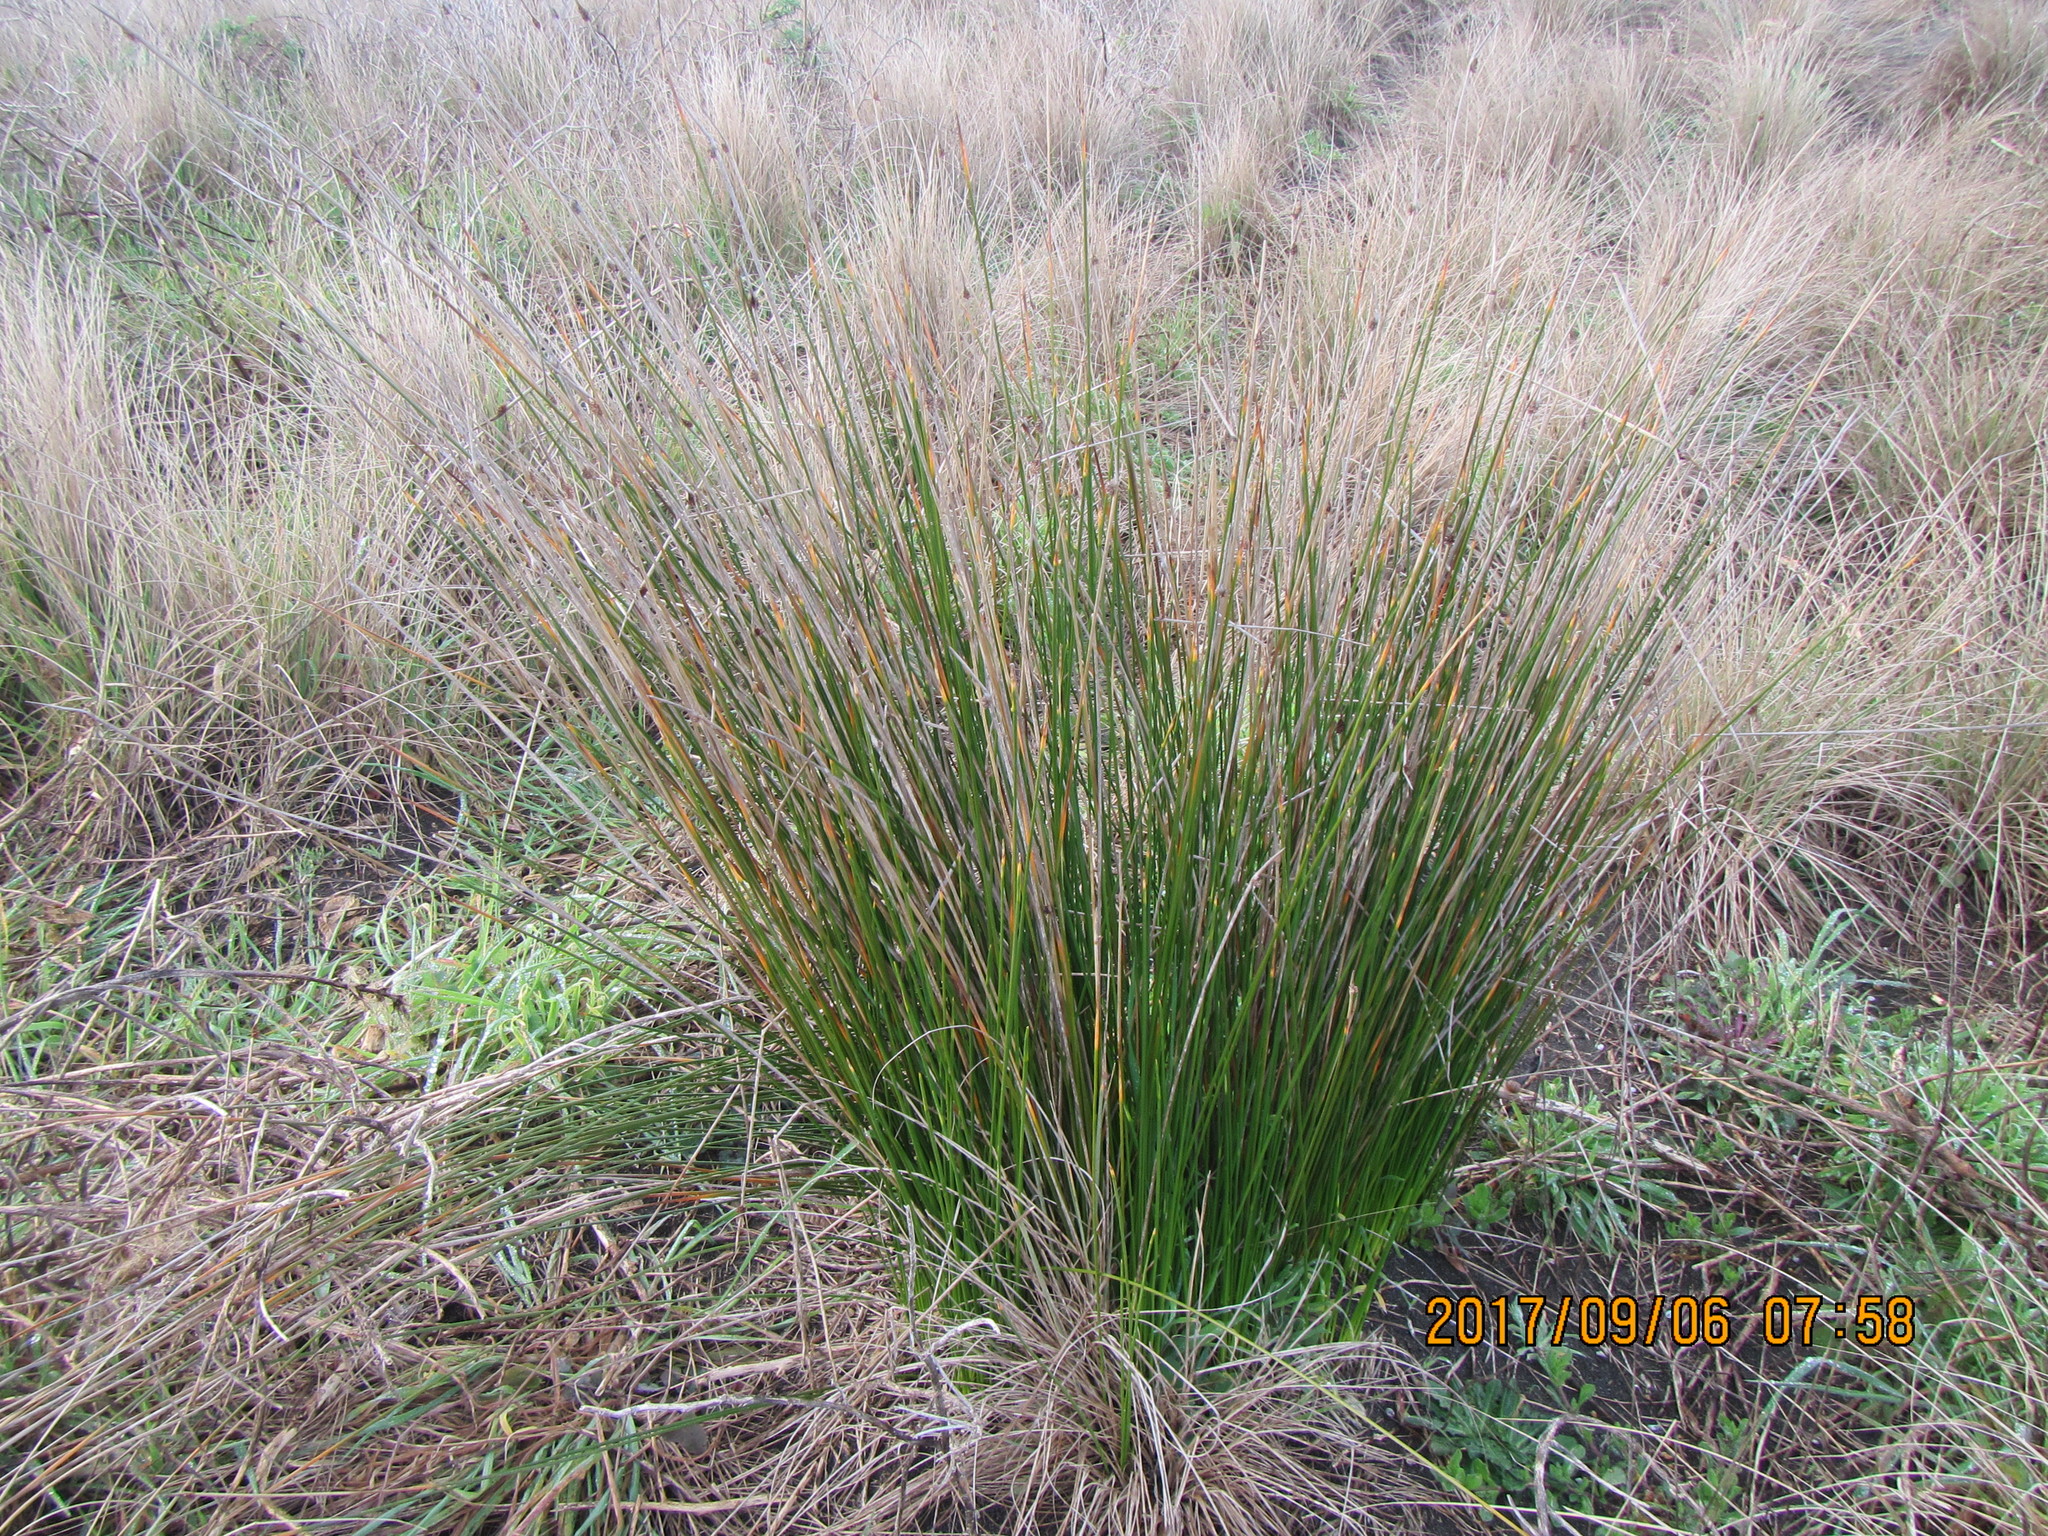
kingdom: Plantae
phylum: Tracheophyta
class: Liliopsida
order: Poales
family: Cyperaceae
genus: Ficinia
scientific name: Ficinia nodosa
